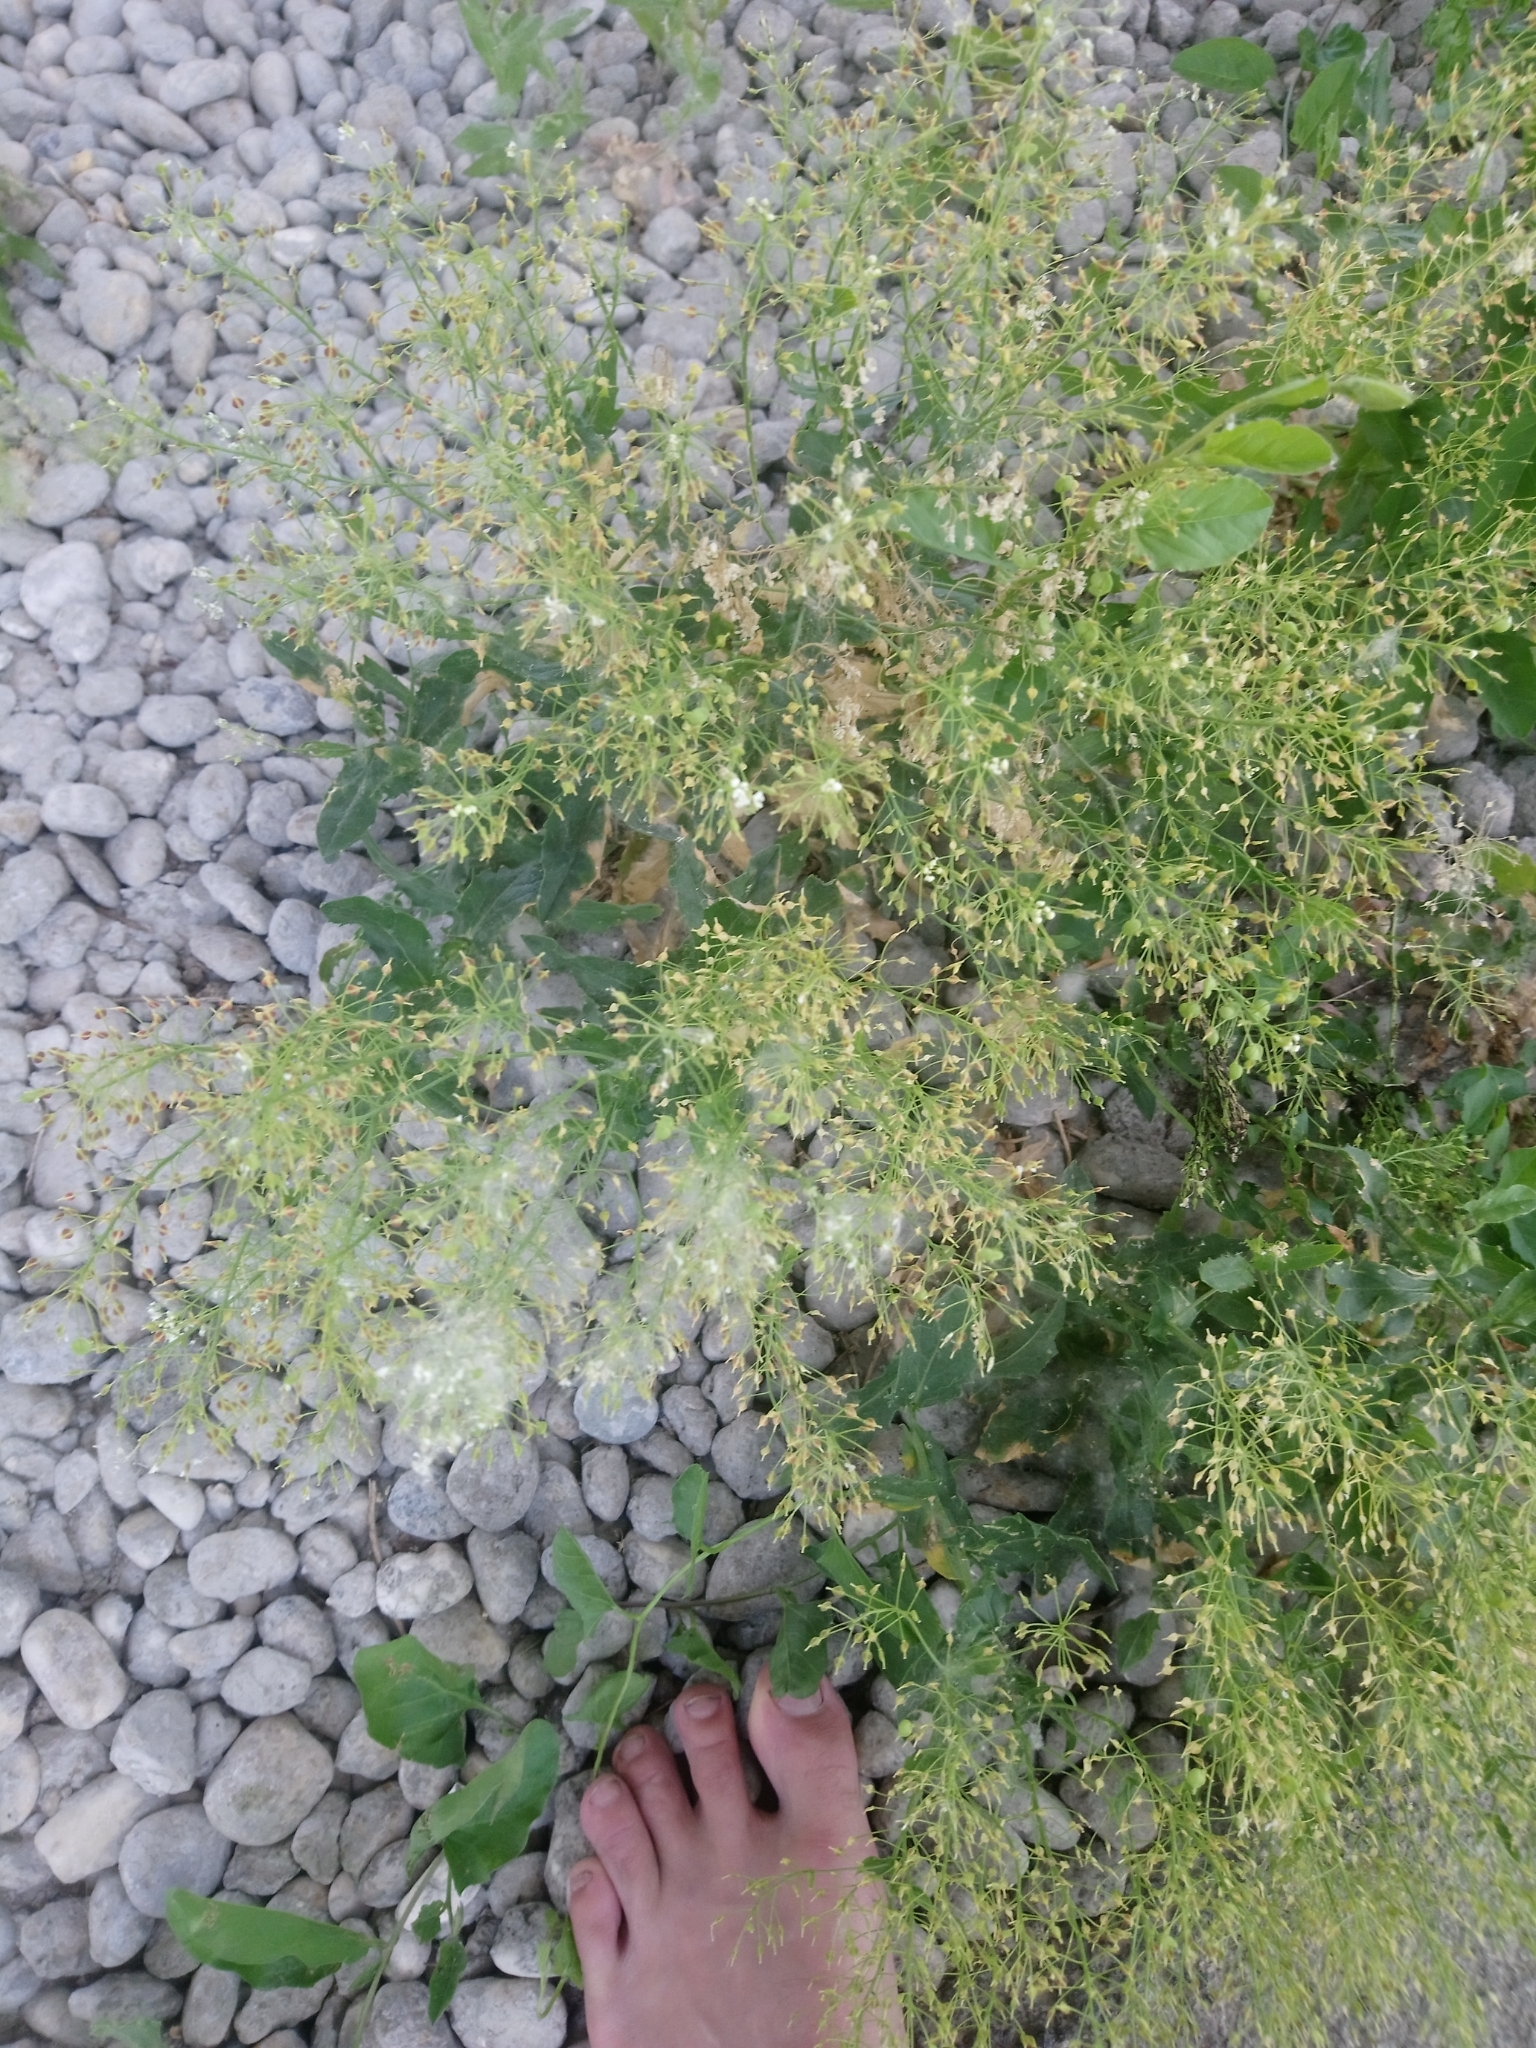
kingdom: Plantae
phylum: Tracheophyta
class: Magnoliopsida
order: Brassicales
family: Brassicaceae
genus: Lepidium
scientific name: Lepidium draba
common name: Hoary cress
